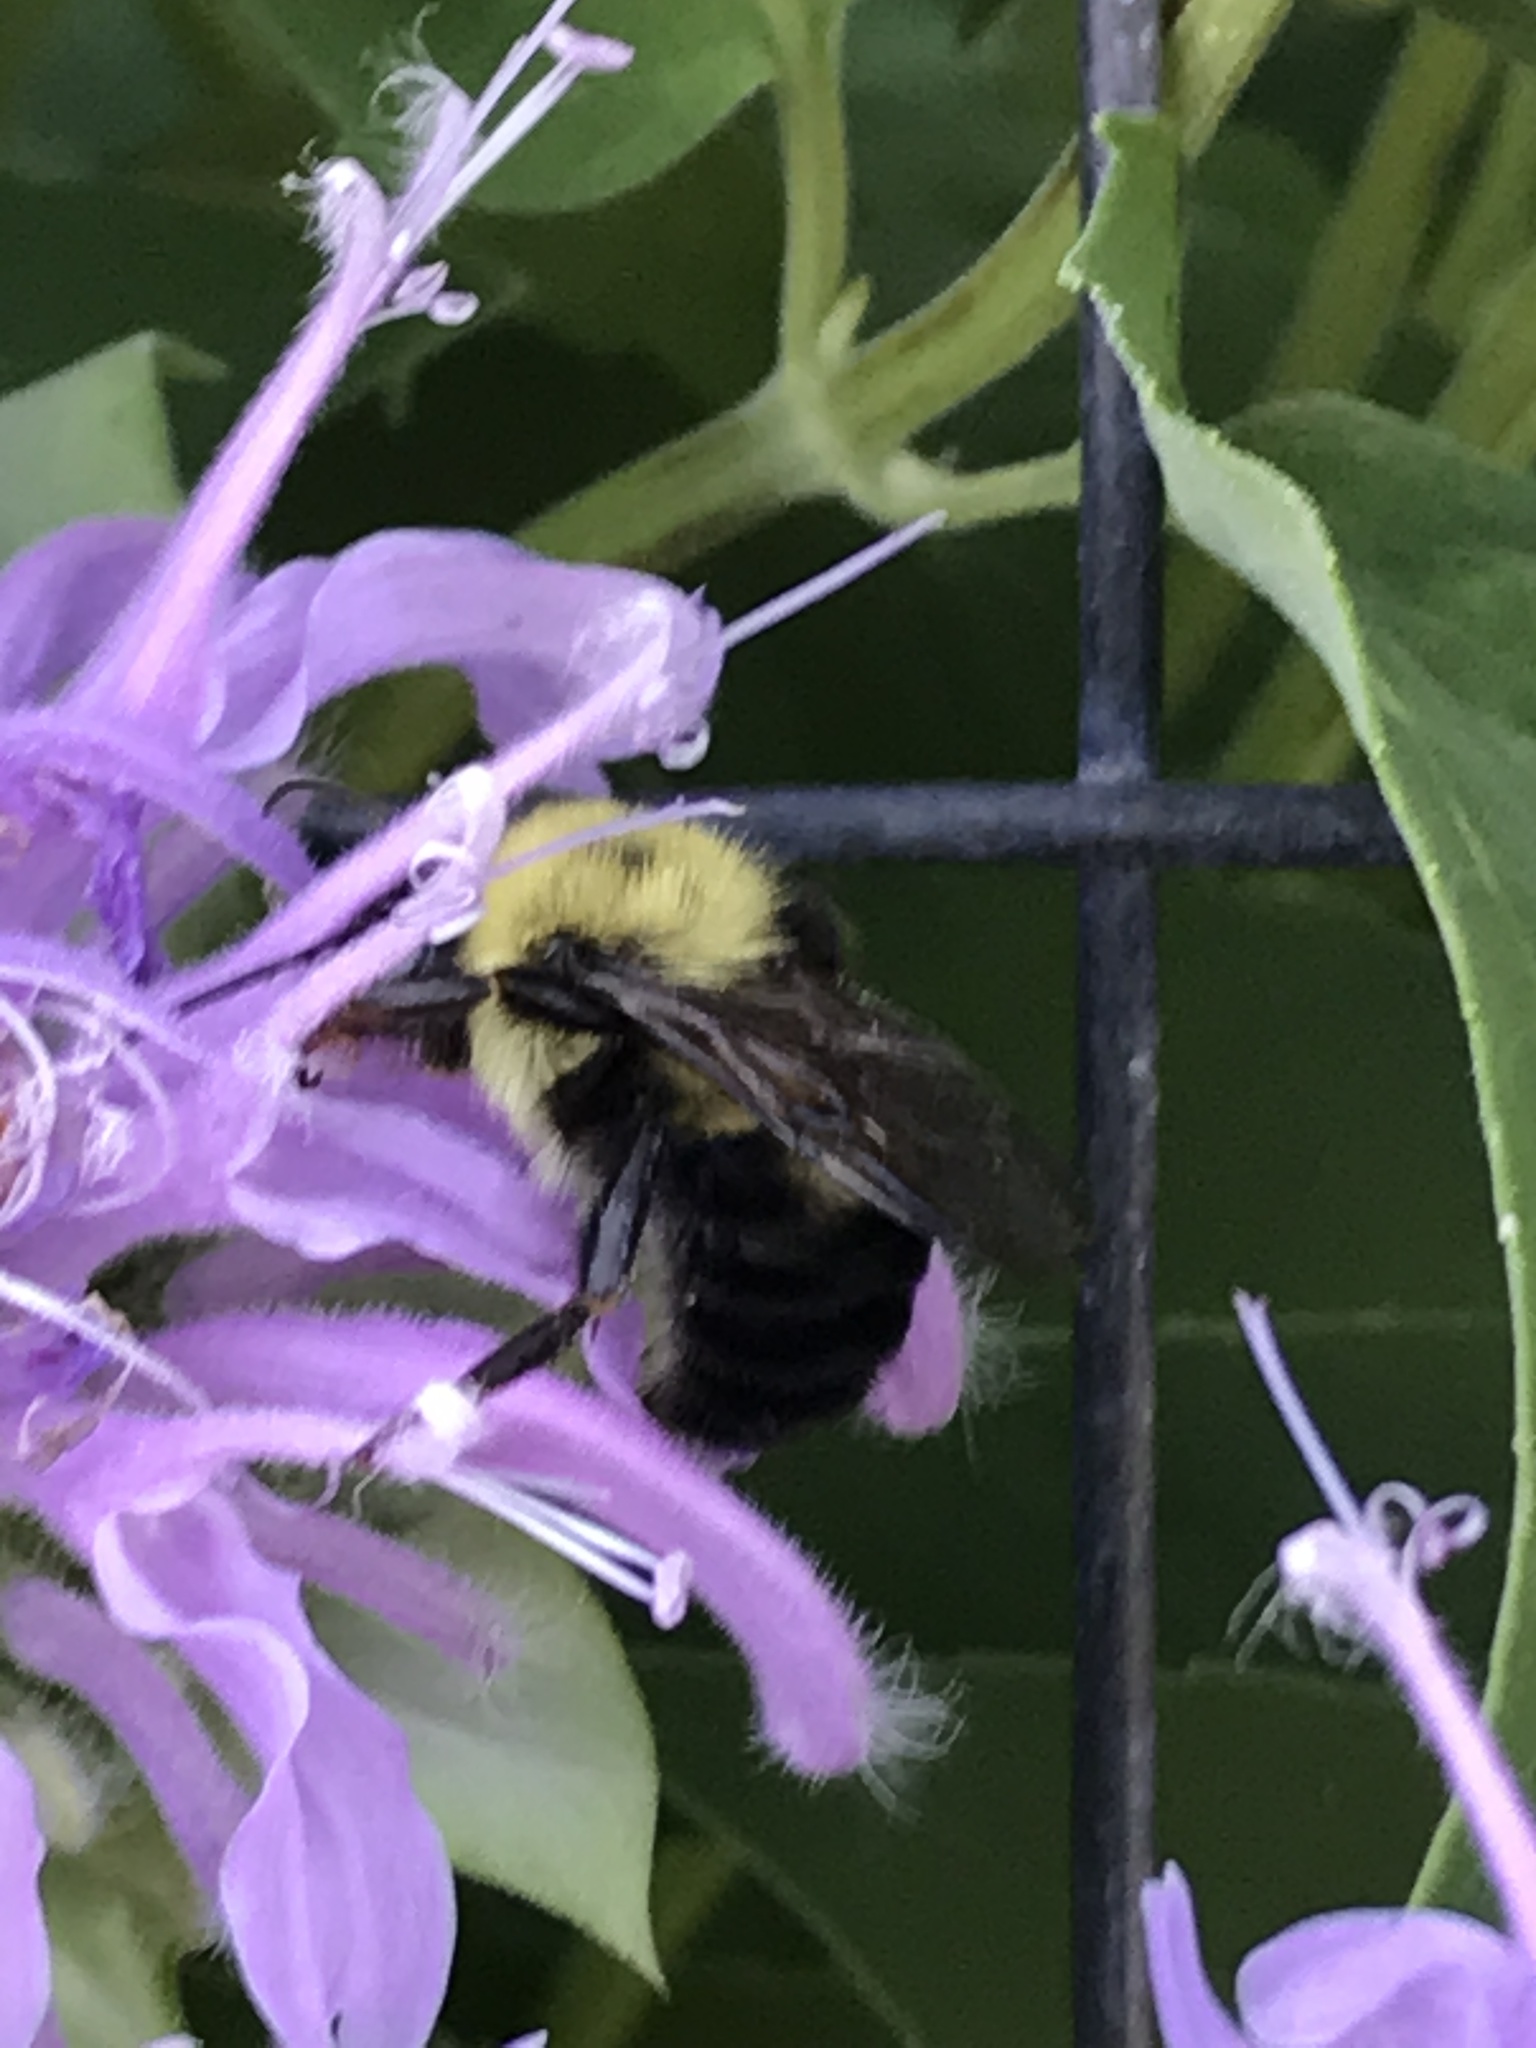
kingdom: Animalia
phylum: Arthropoda
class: Insecta
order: Hymenoptera
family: Apidae
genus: Bombus
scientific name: Bombus bimaculatus
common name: Two-spotted bumble bee
